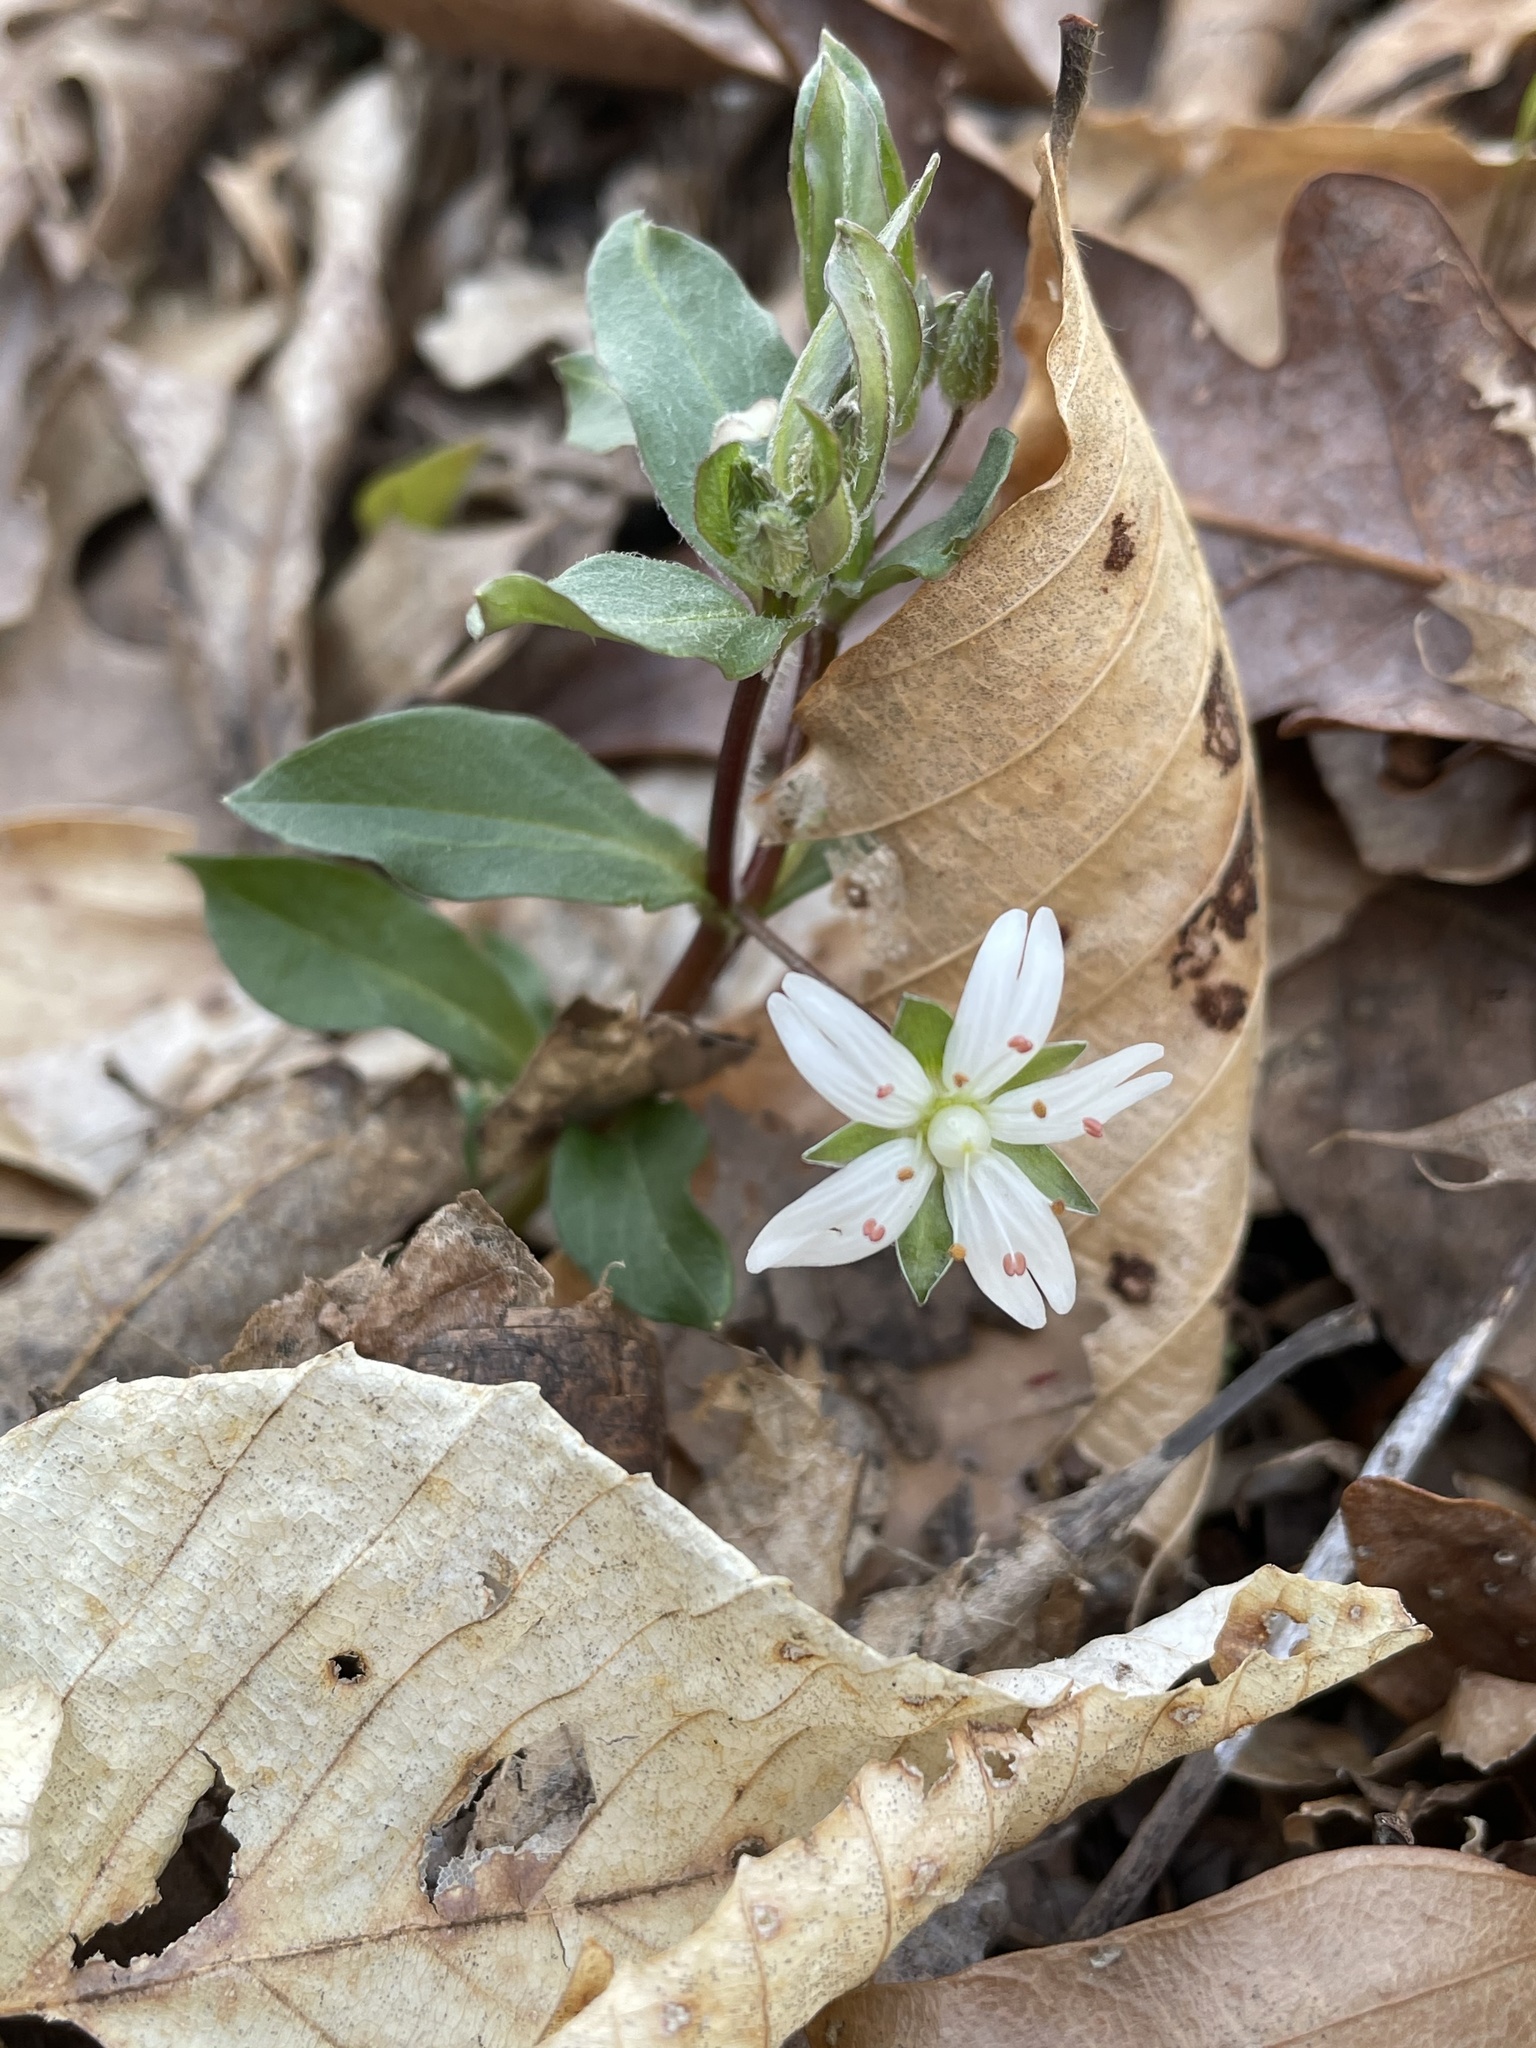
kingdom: Plantae
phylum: Tracheophyta
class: Magnoliopsida
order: Caryophyllales
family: Caryophyllaceae
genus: Stellaria
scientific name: Stellaria pubera
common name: Star chickweed
